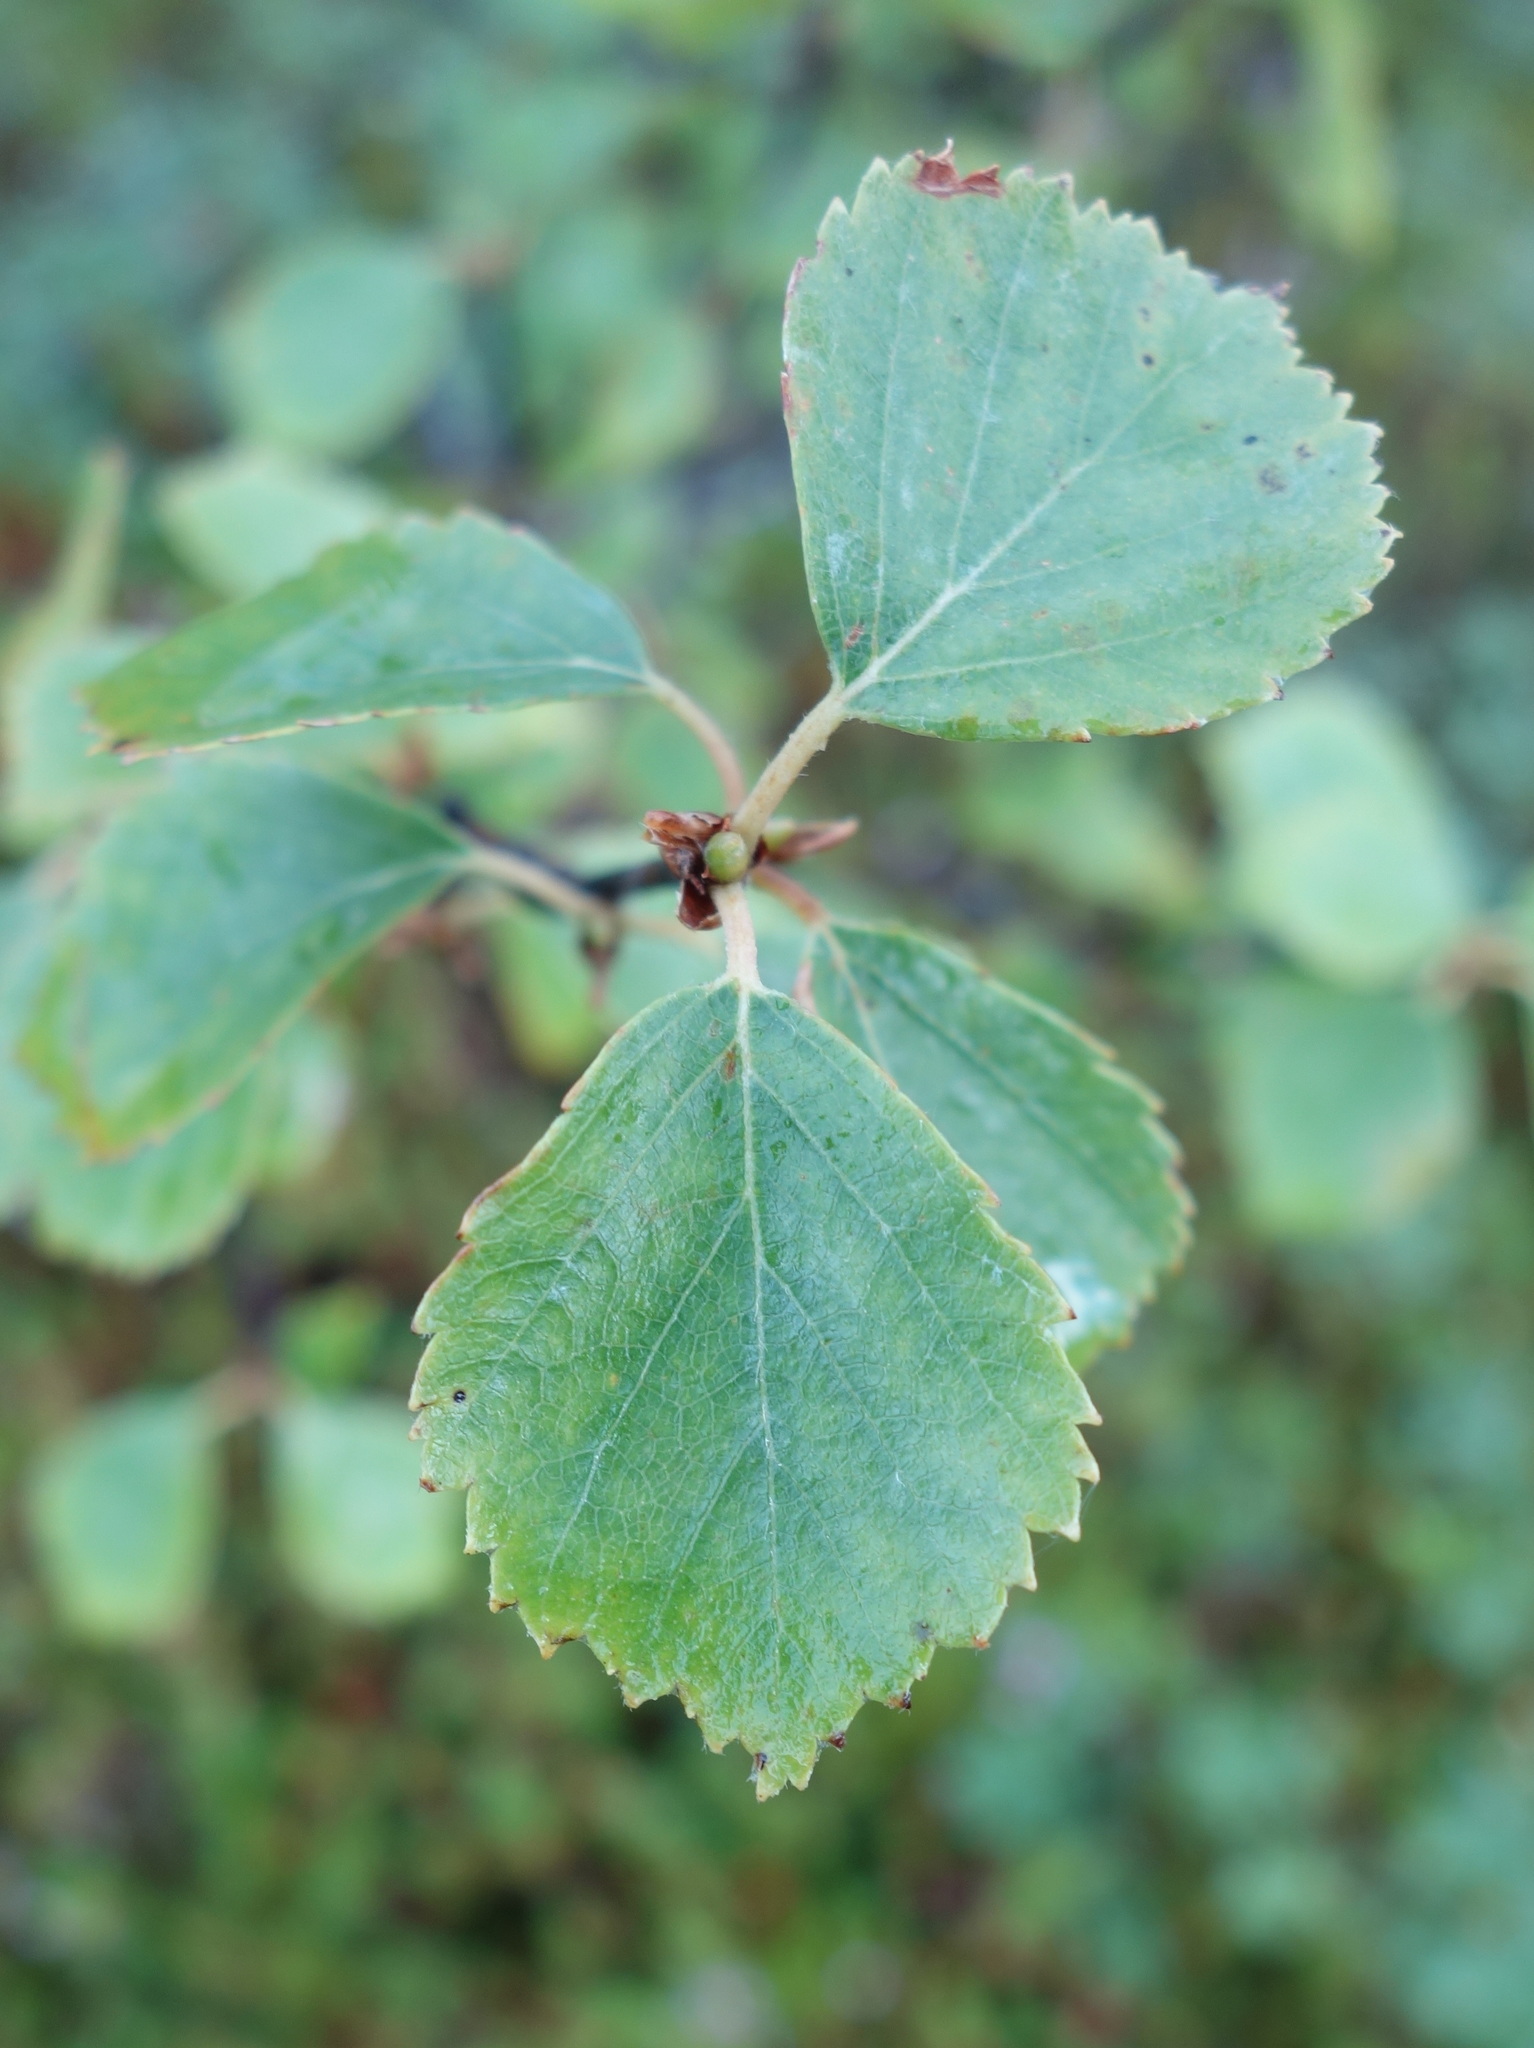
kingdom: Plantae
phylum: Tracheophyta
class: Magnoliopsida
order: Fagales
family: Betulaceae
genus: Betula
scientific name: Betula pubescens
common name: Downy birch
